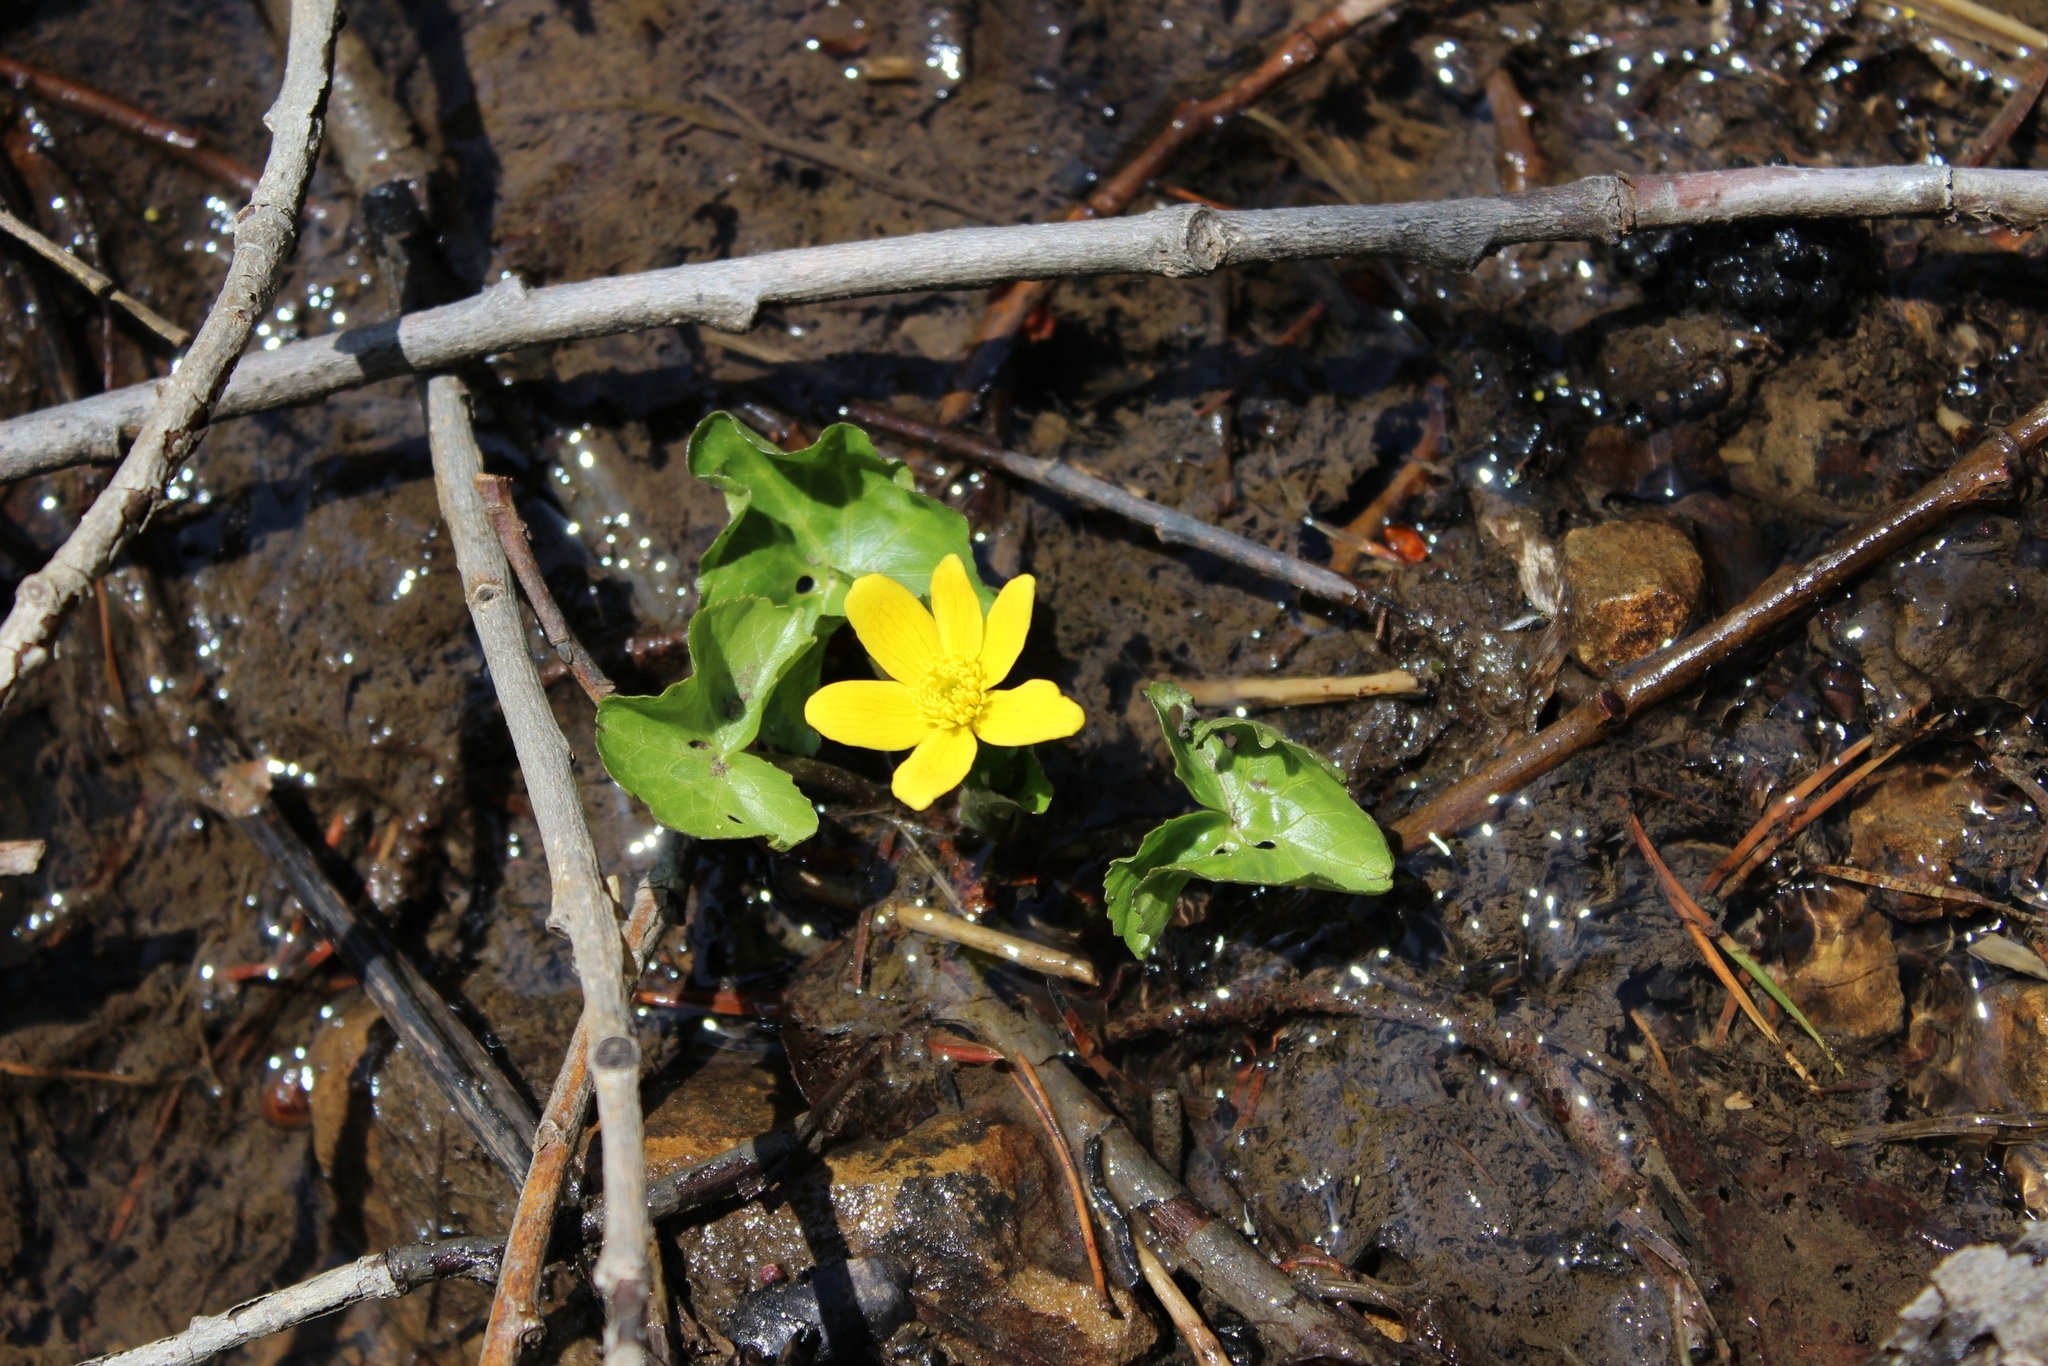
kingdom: Plantae
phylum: Tracheophyta
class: Magnoliopsida
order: Ranunculales
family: Ranunculaceae
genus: Caltha
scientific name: Caltha palustris
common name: Marsh marigold
